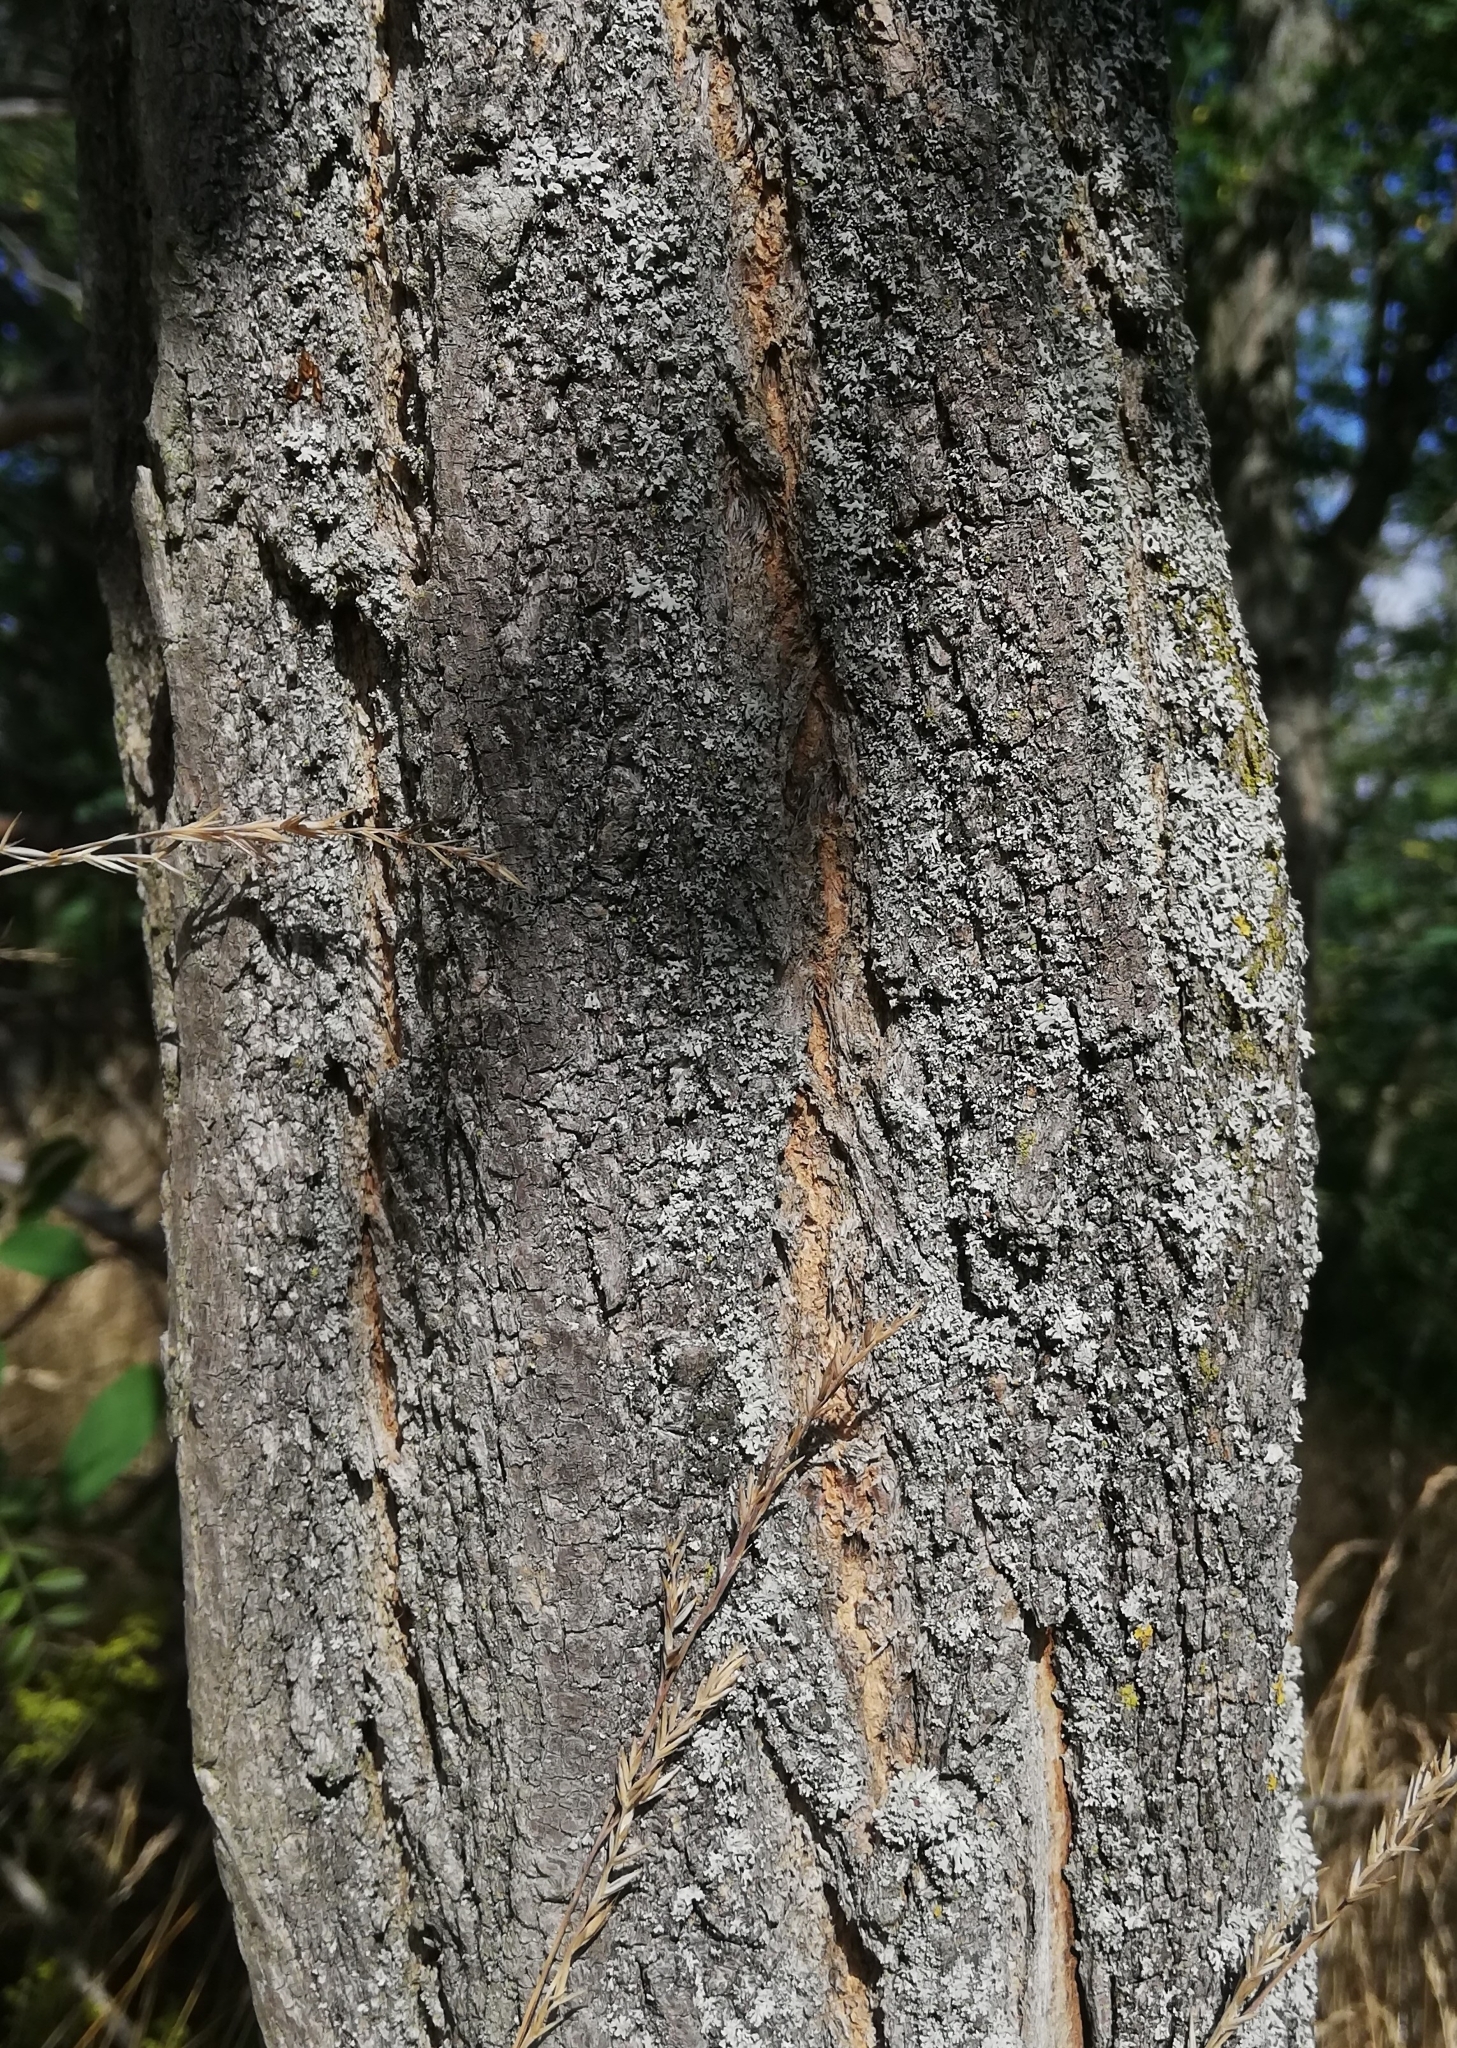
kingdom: Plantae
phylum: Tracheophyta
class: Magnoliopsida
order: Fabales
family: Fabaceae
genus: Robinia
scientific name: Robinia pseudoacacia
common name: Black locust
